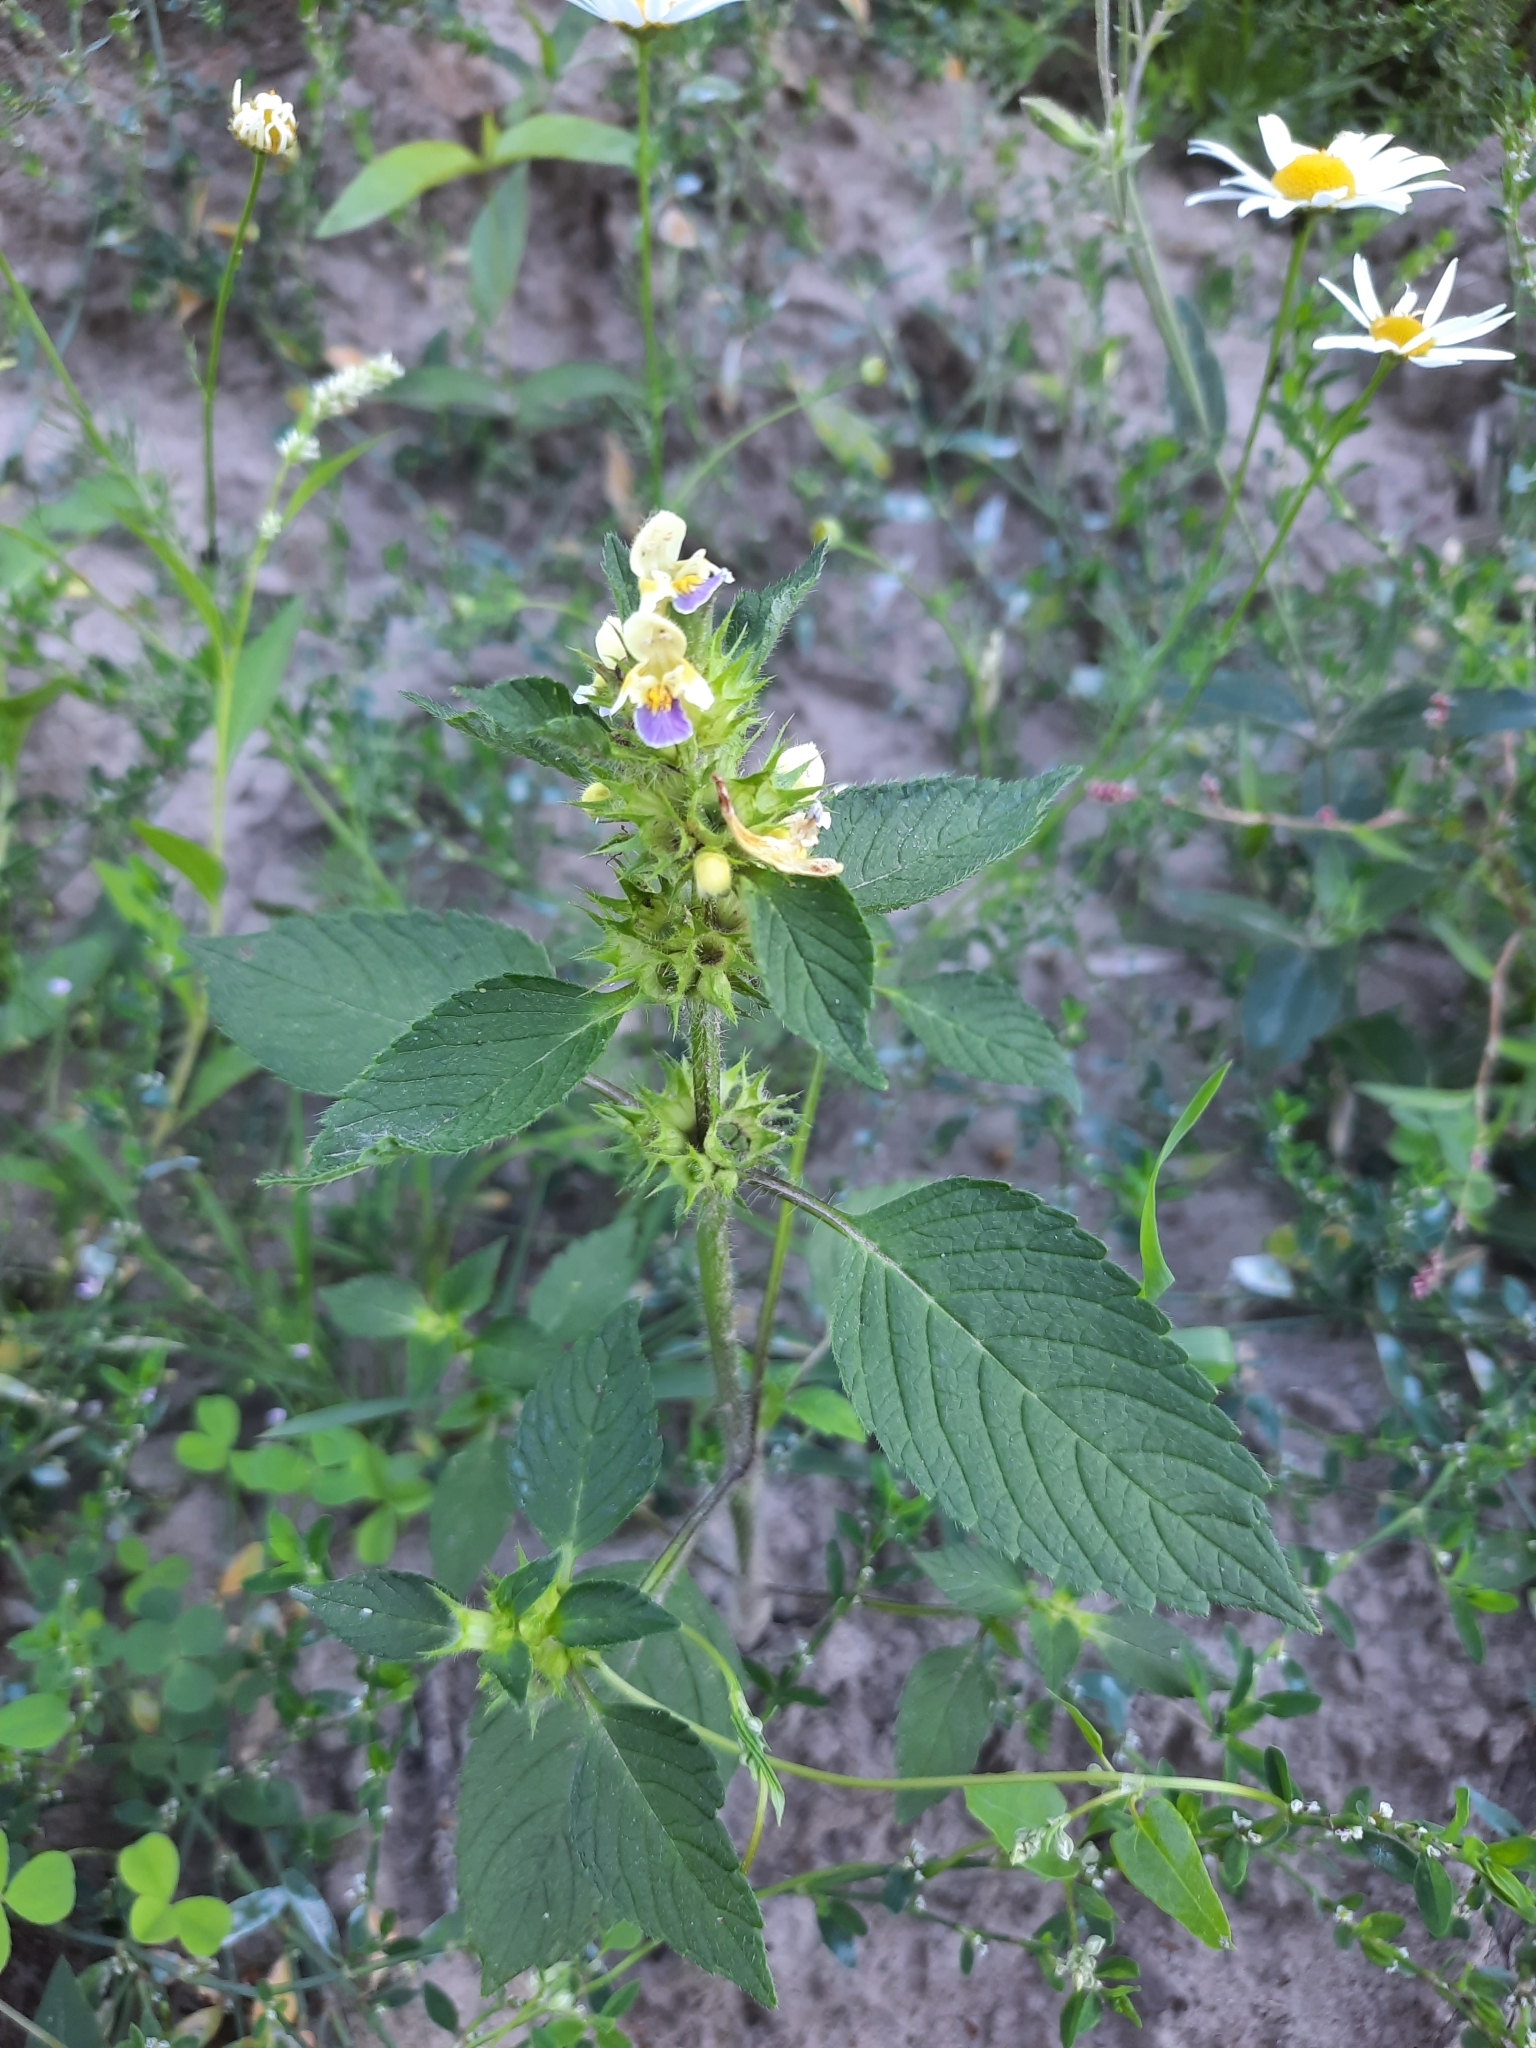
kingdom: Plantae
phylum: Tracheophyta
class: Magnoliopsida
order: Lamiales
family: Lamiaceae
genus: Galeopsis
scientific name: Galeopsis speciosa
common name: Large-flowered hemp-nettle
